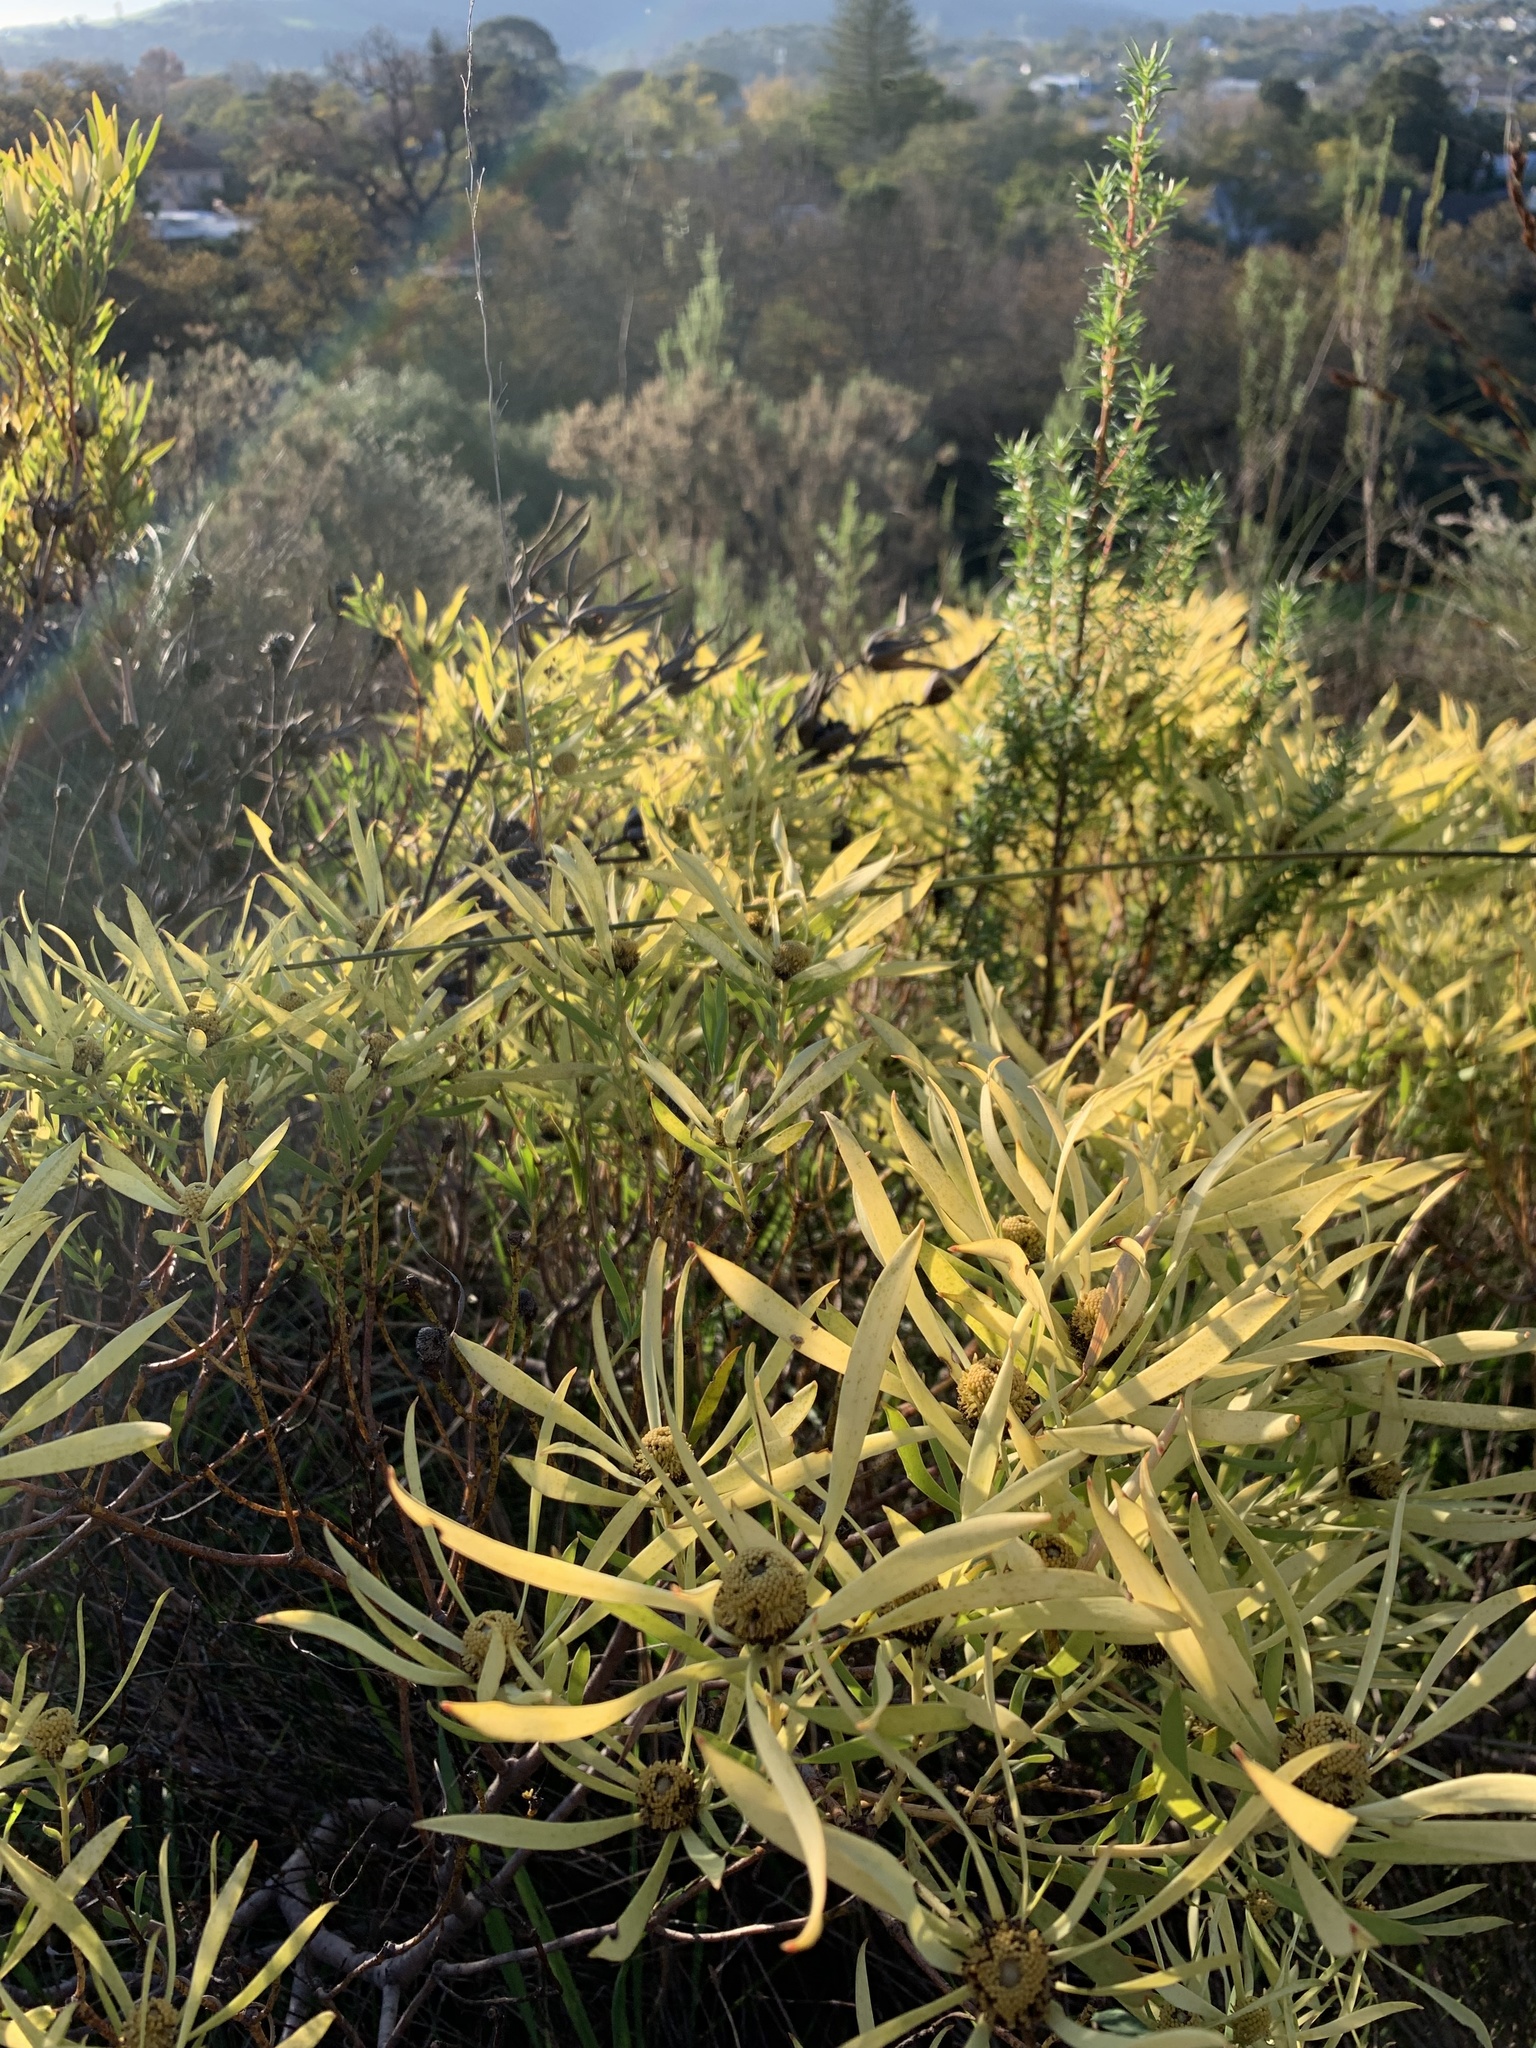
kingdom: Plantae
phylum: Tracheophyta
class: Magnoliopsida
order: Proteales
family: Proteaceae
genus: Leucadendron
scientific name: Leucadendron salignum
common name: Common sunshine conebush
